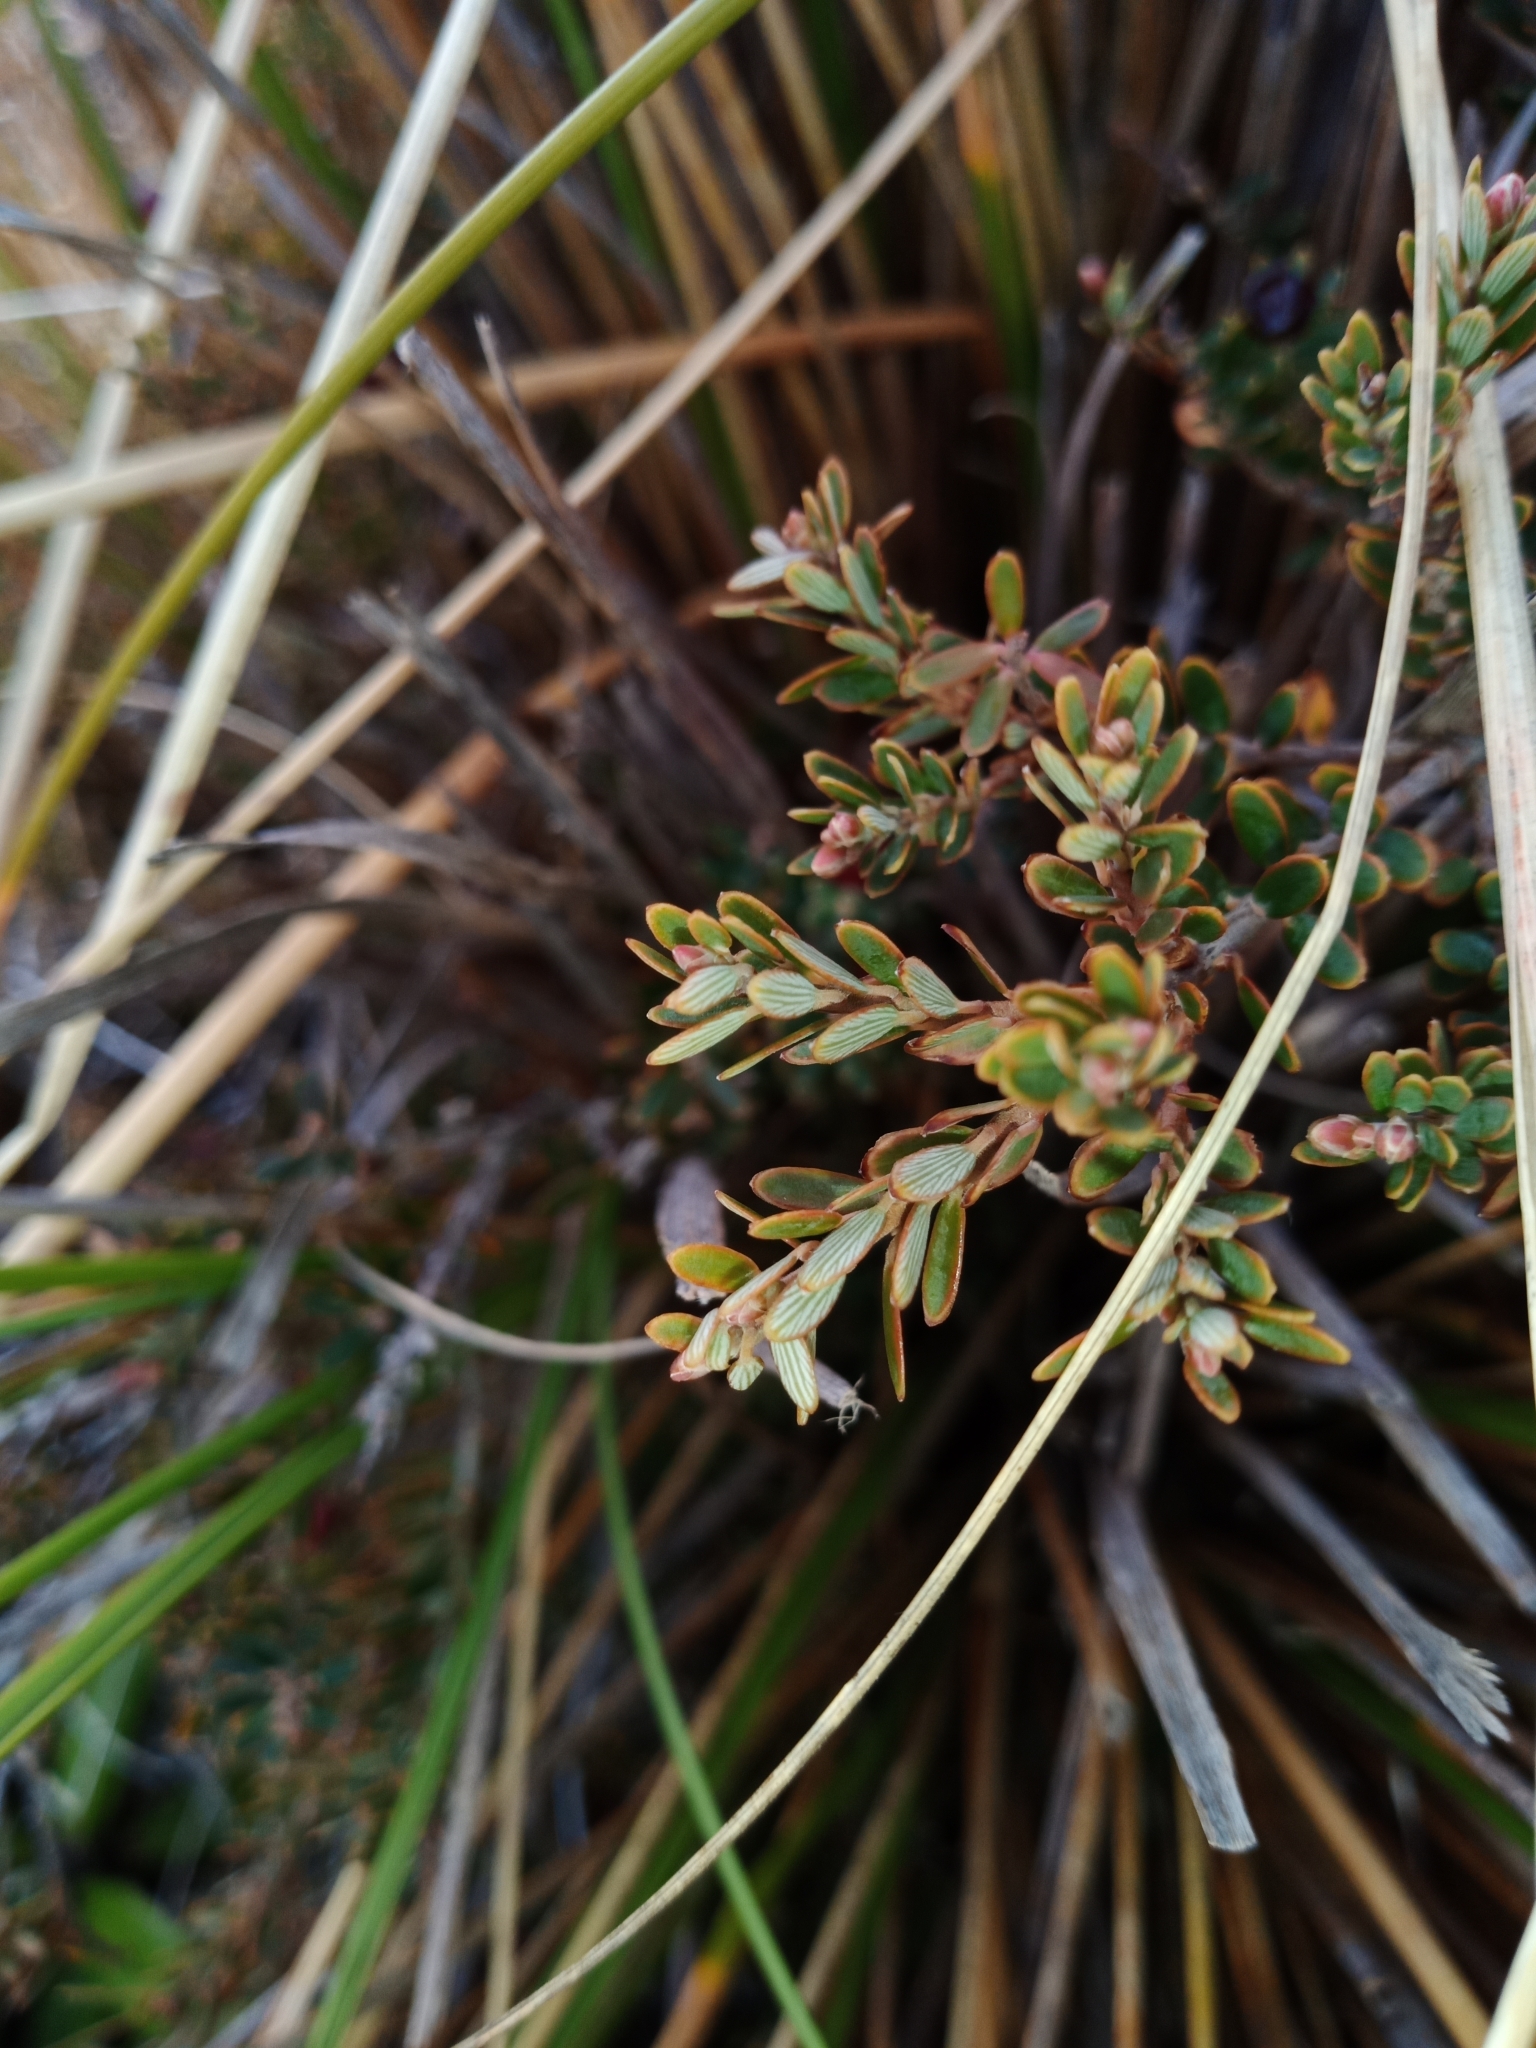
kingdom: Plantae
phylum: Tracheophyta
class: Magnoliopsida
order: Ericales
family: Ericaceae
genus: Acrothamnus
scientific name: Acrothamnus colensoi
